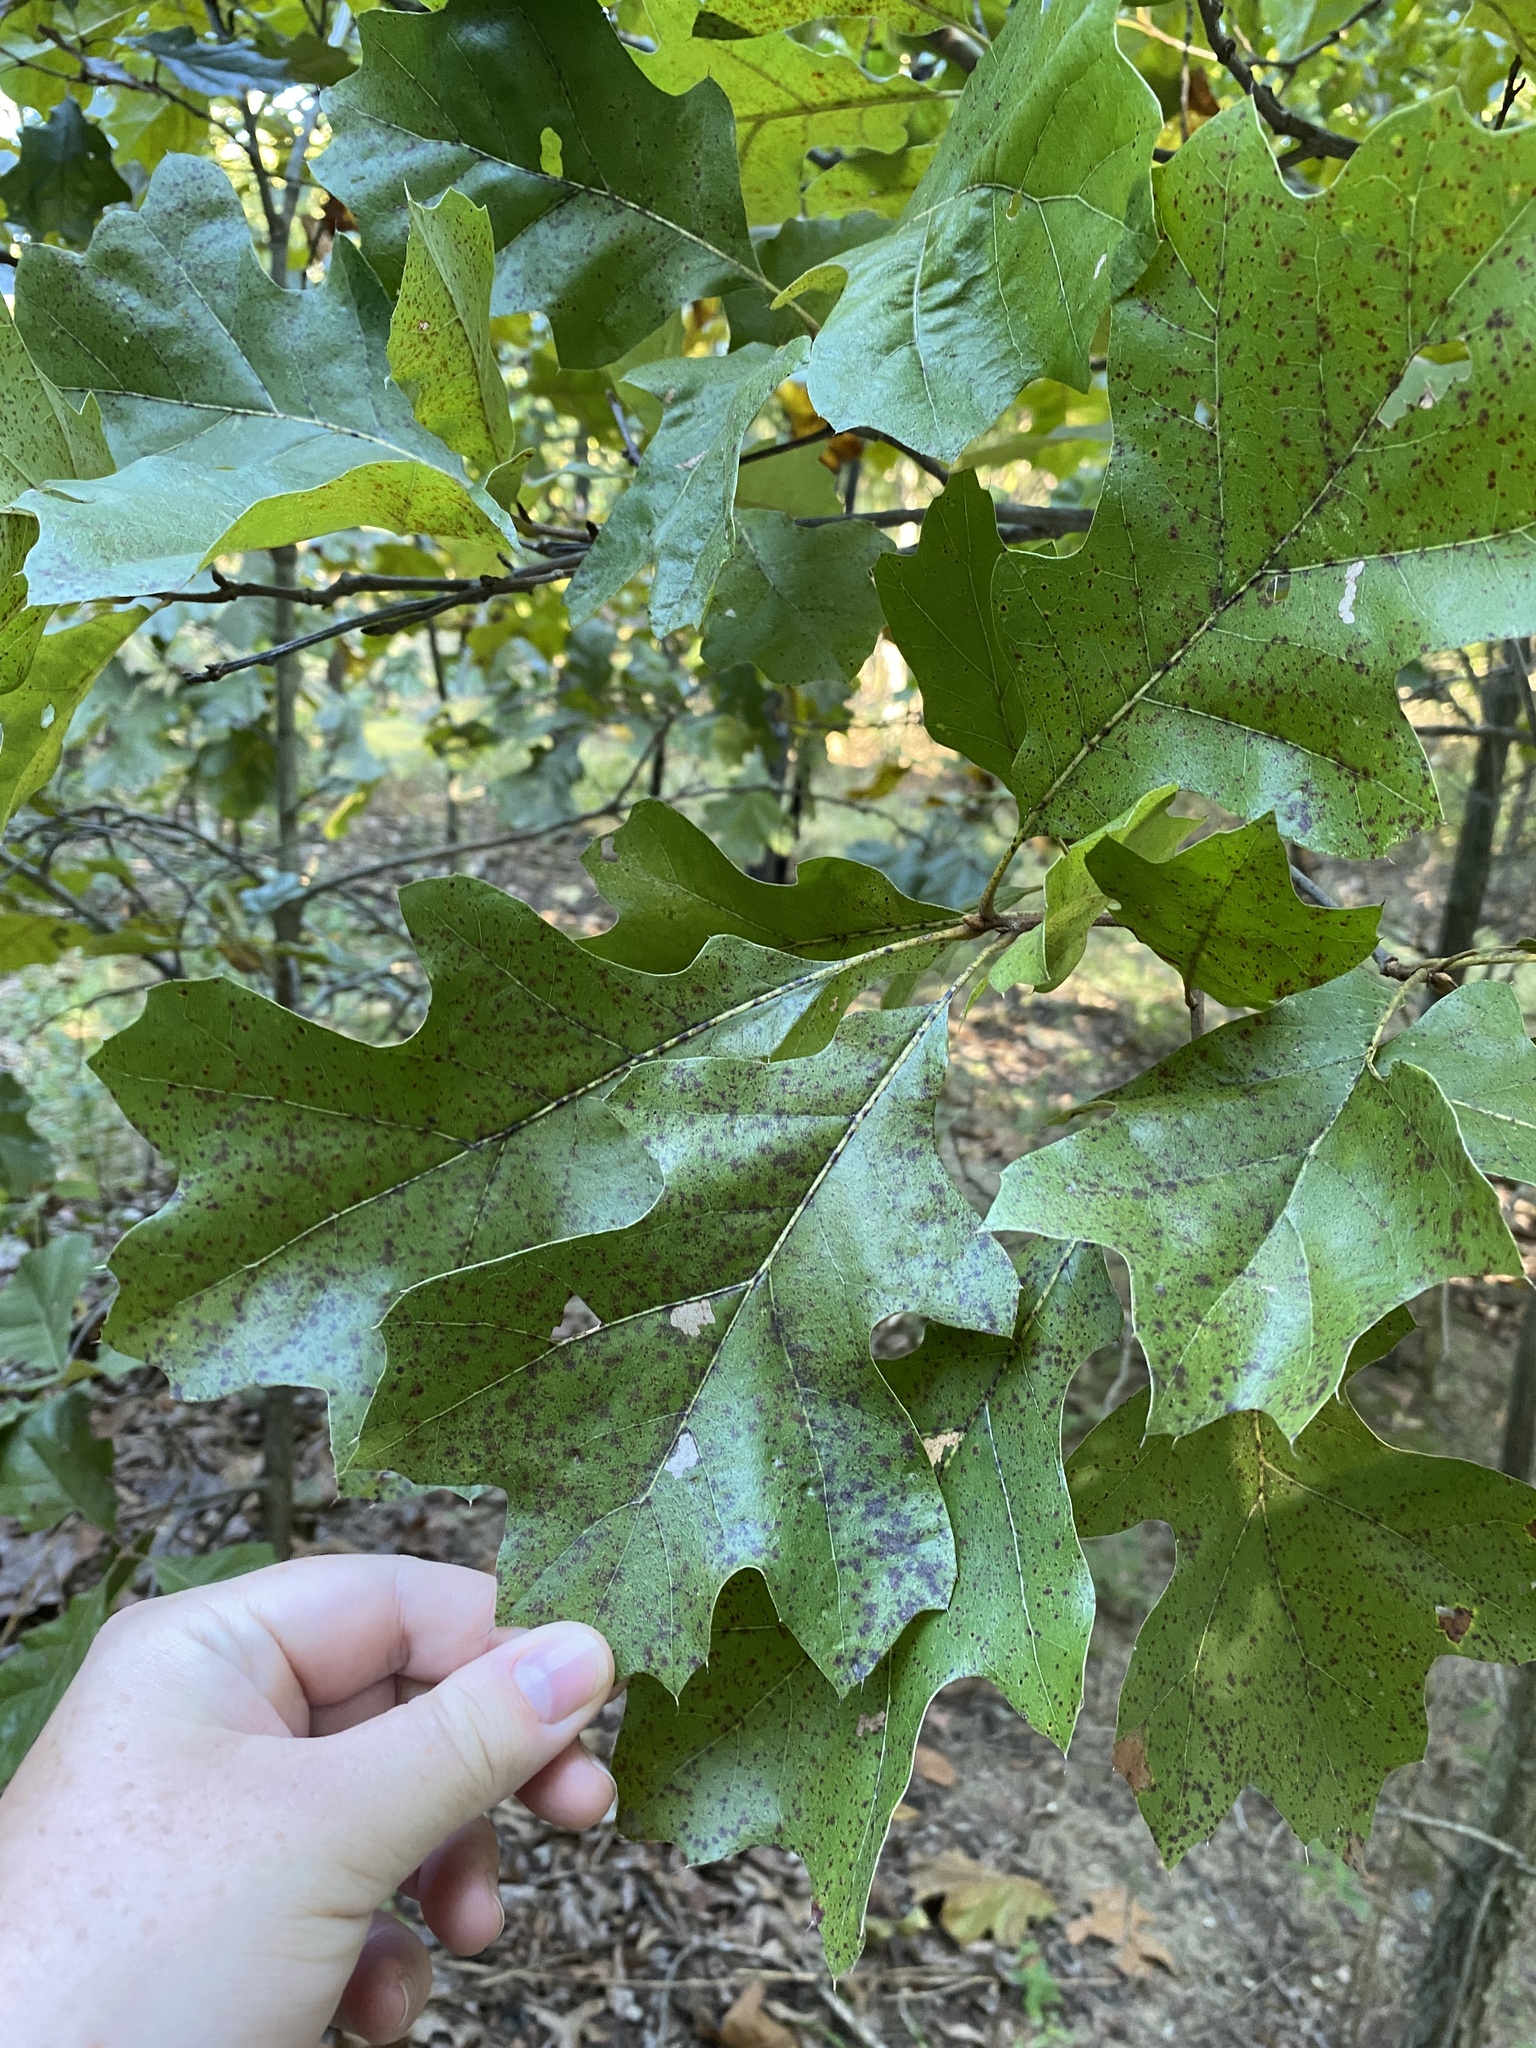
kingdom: Plantae
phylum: Tracheophyta
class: Magnoliopsida
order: Fagales
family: Fagaceae
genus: Quercus
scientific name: Quercus velutina
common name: Black oak
